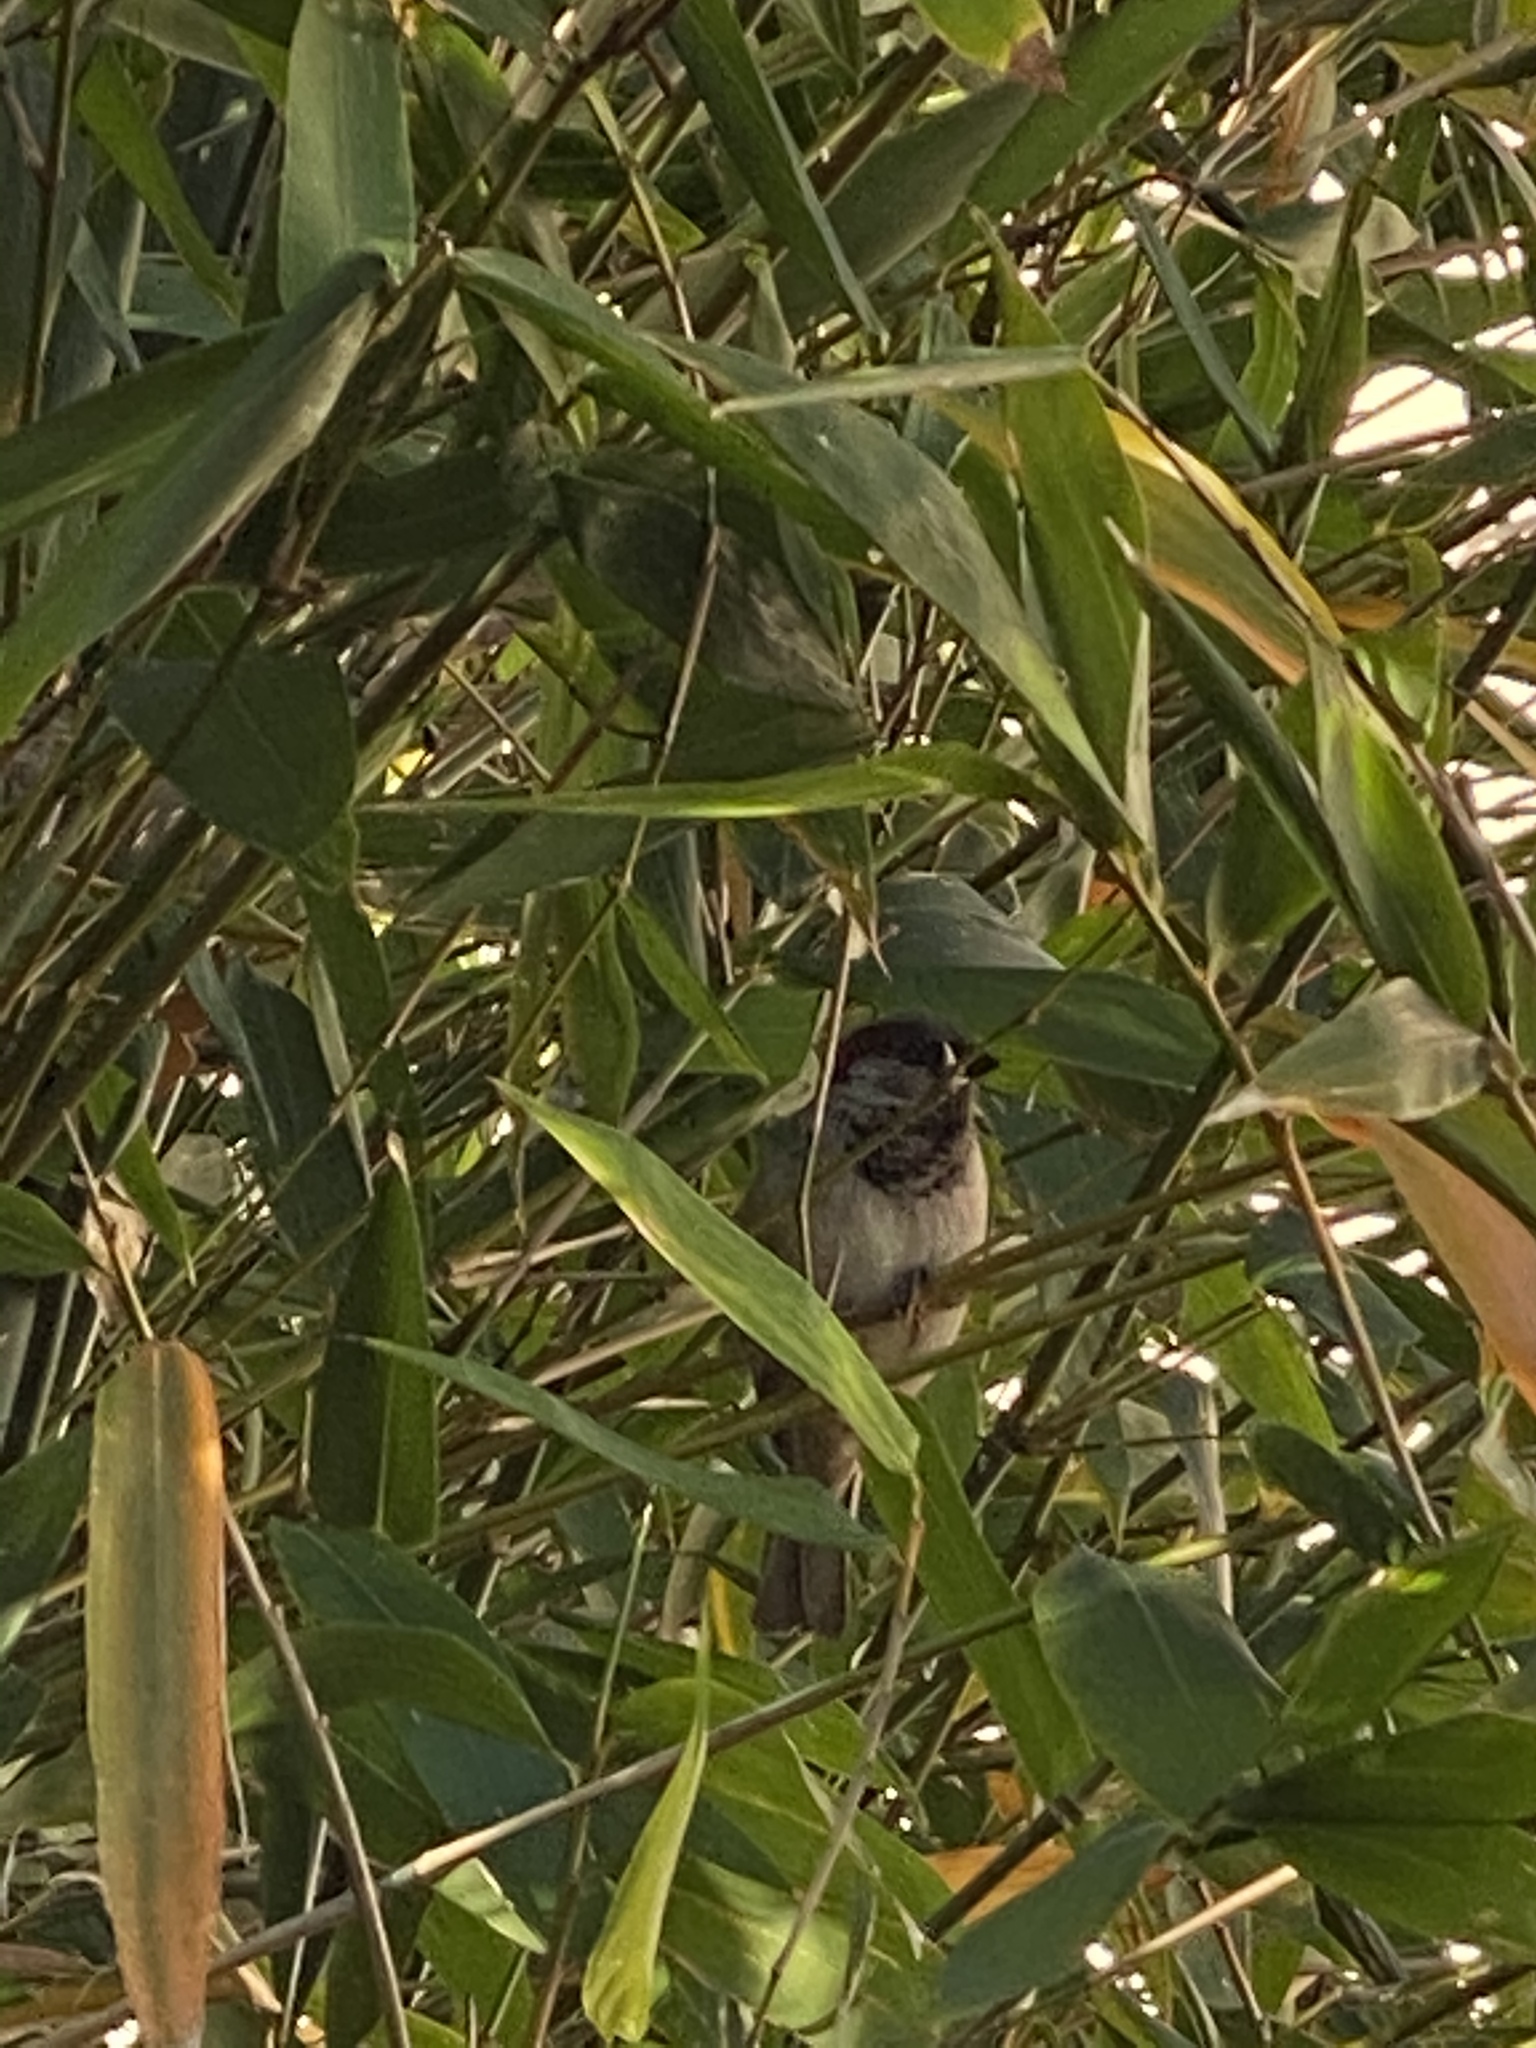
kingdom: Animalia
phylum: Chordata
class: Aves
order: Passeriformes
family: Passeridae
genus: Passer
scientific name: Passer domesticus
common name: House sparrow
